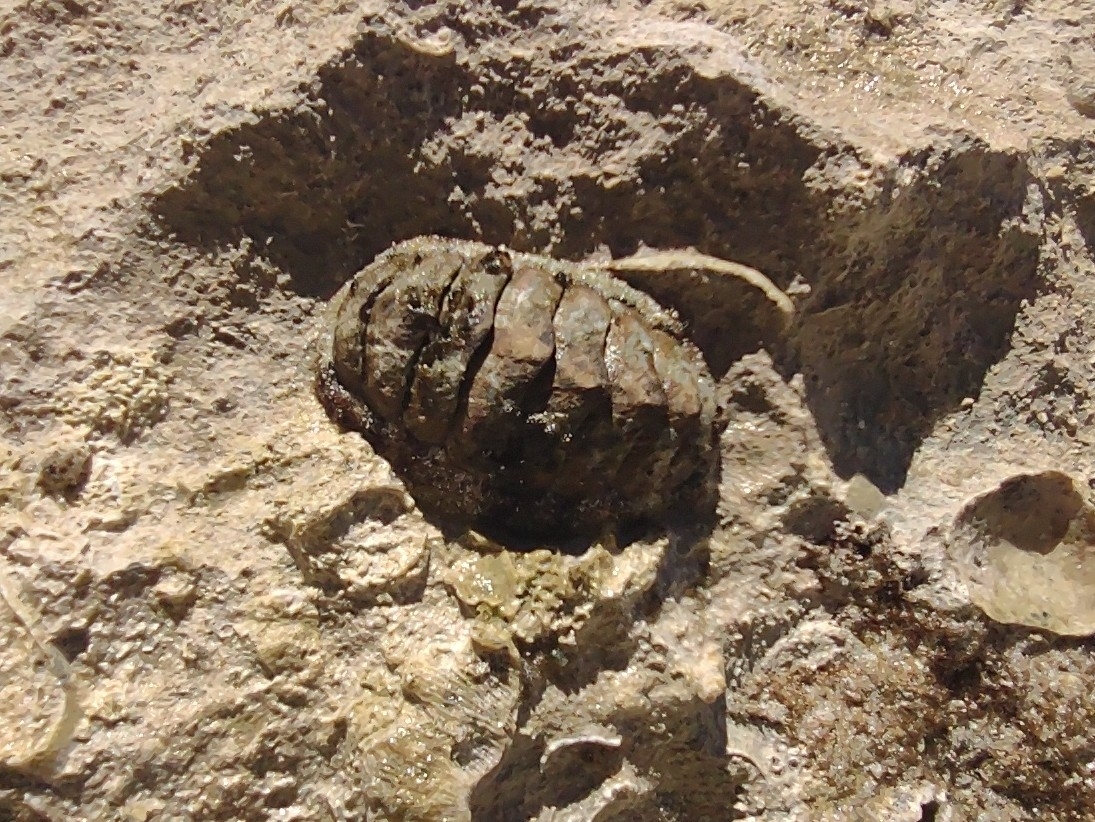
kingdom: Animalia
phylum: Mollusca
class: Polyplacophora
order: Chitonida
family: Chitonidae
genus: Acanthopleura
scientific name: Acanthopleura granulata
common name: West indian fuzzy chiton
